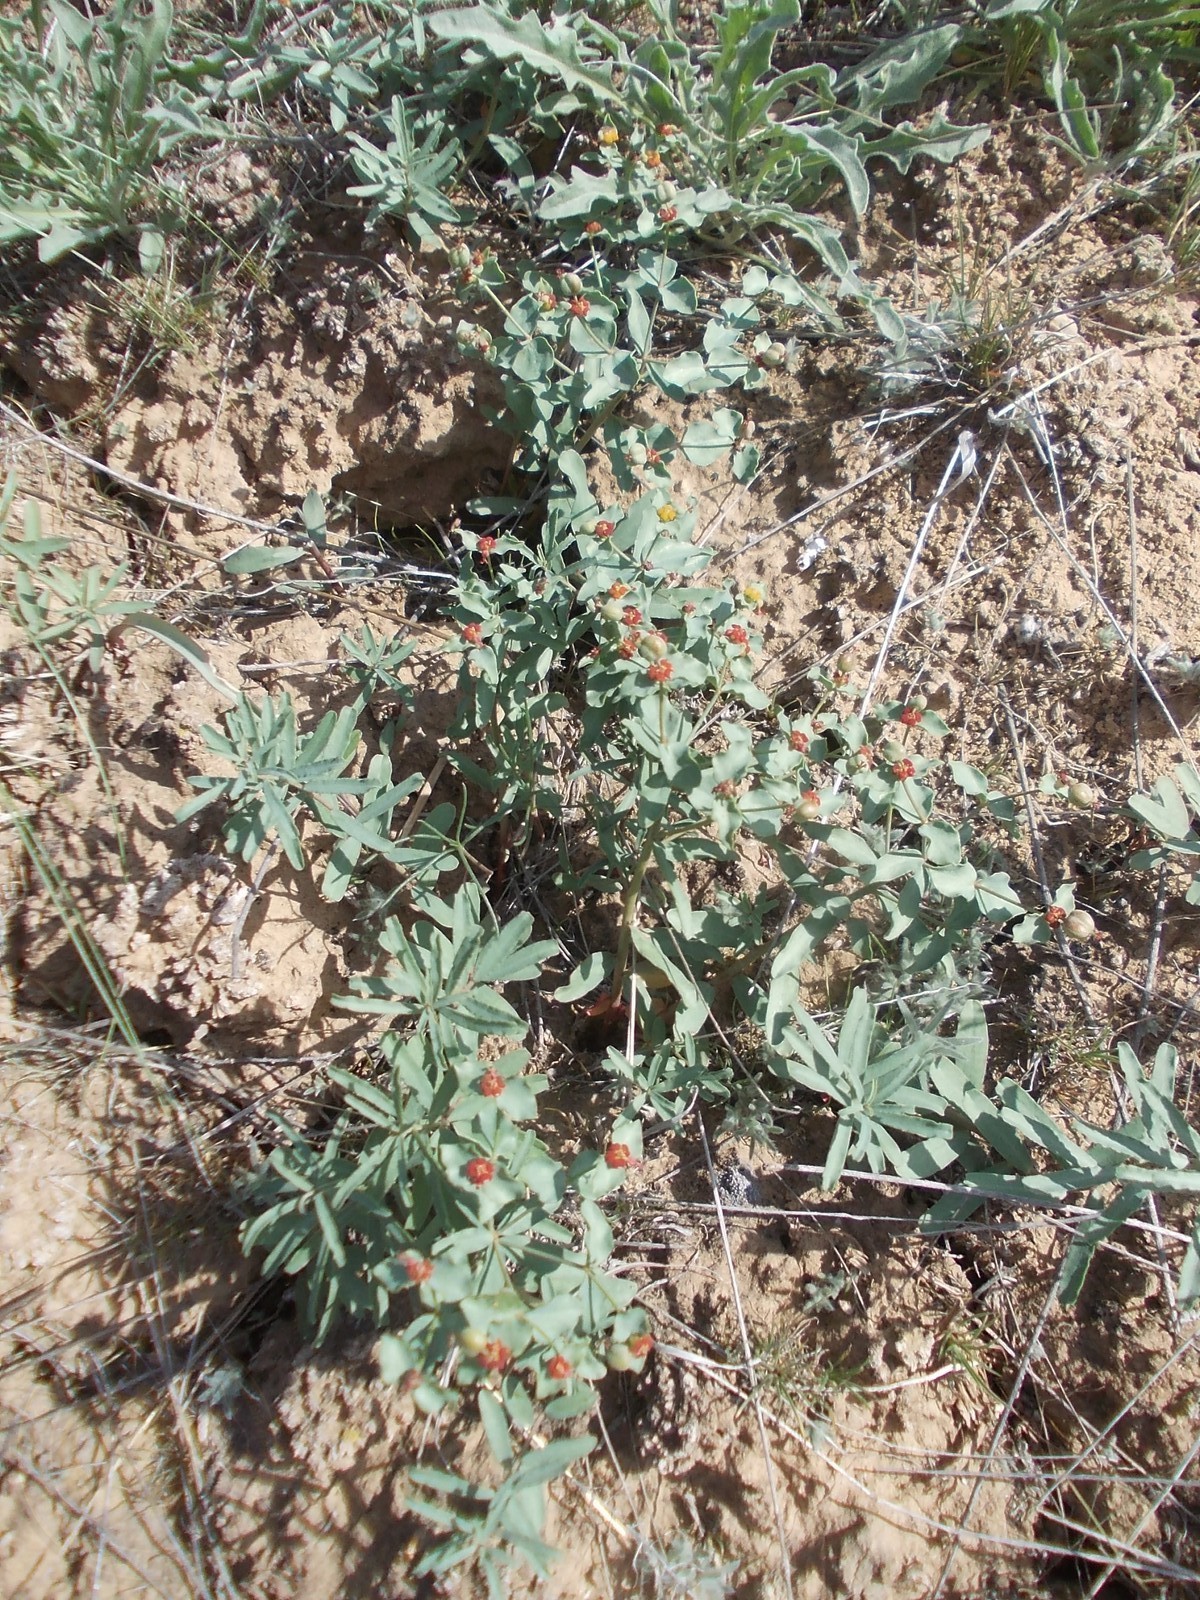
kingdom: Plantae
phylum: Tracheophyta
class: Magnoliopsida
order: Malpighiales
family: Euphorbiaceae
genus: Euphorbia
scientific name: Euphorbia undulata
